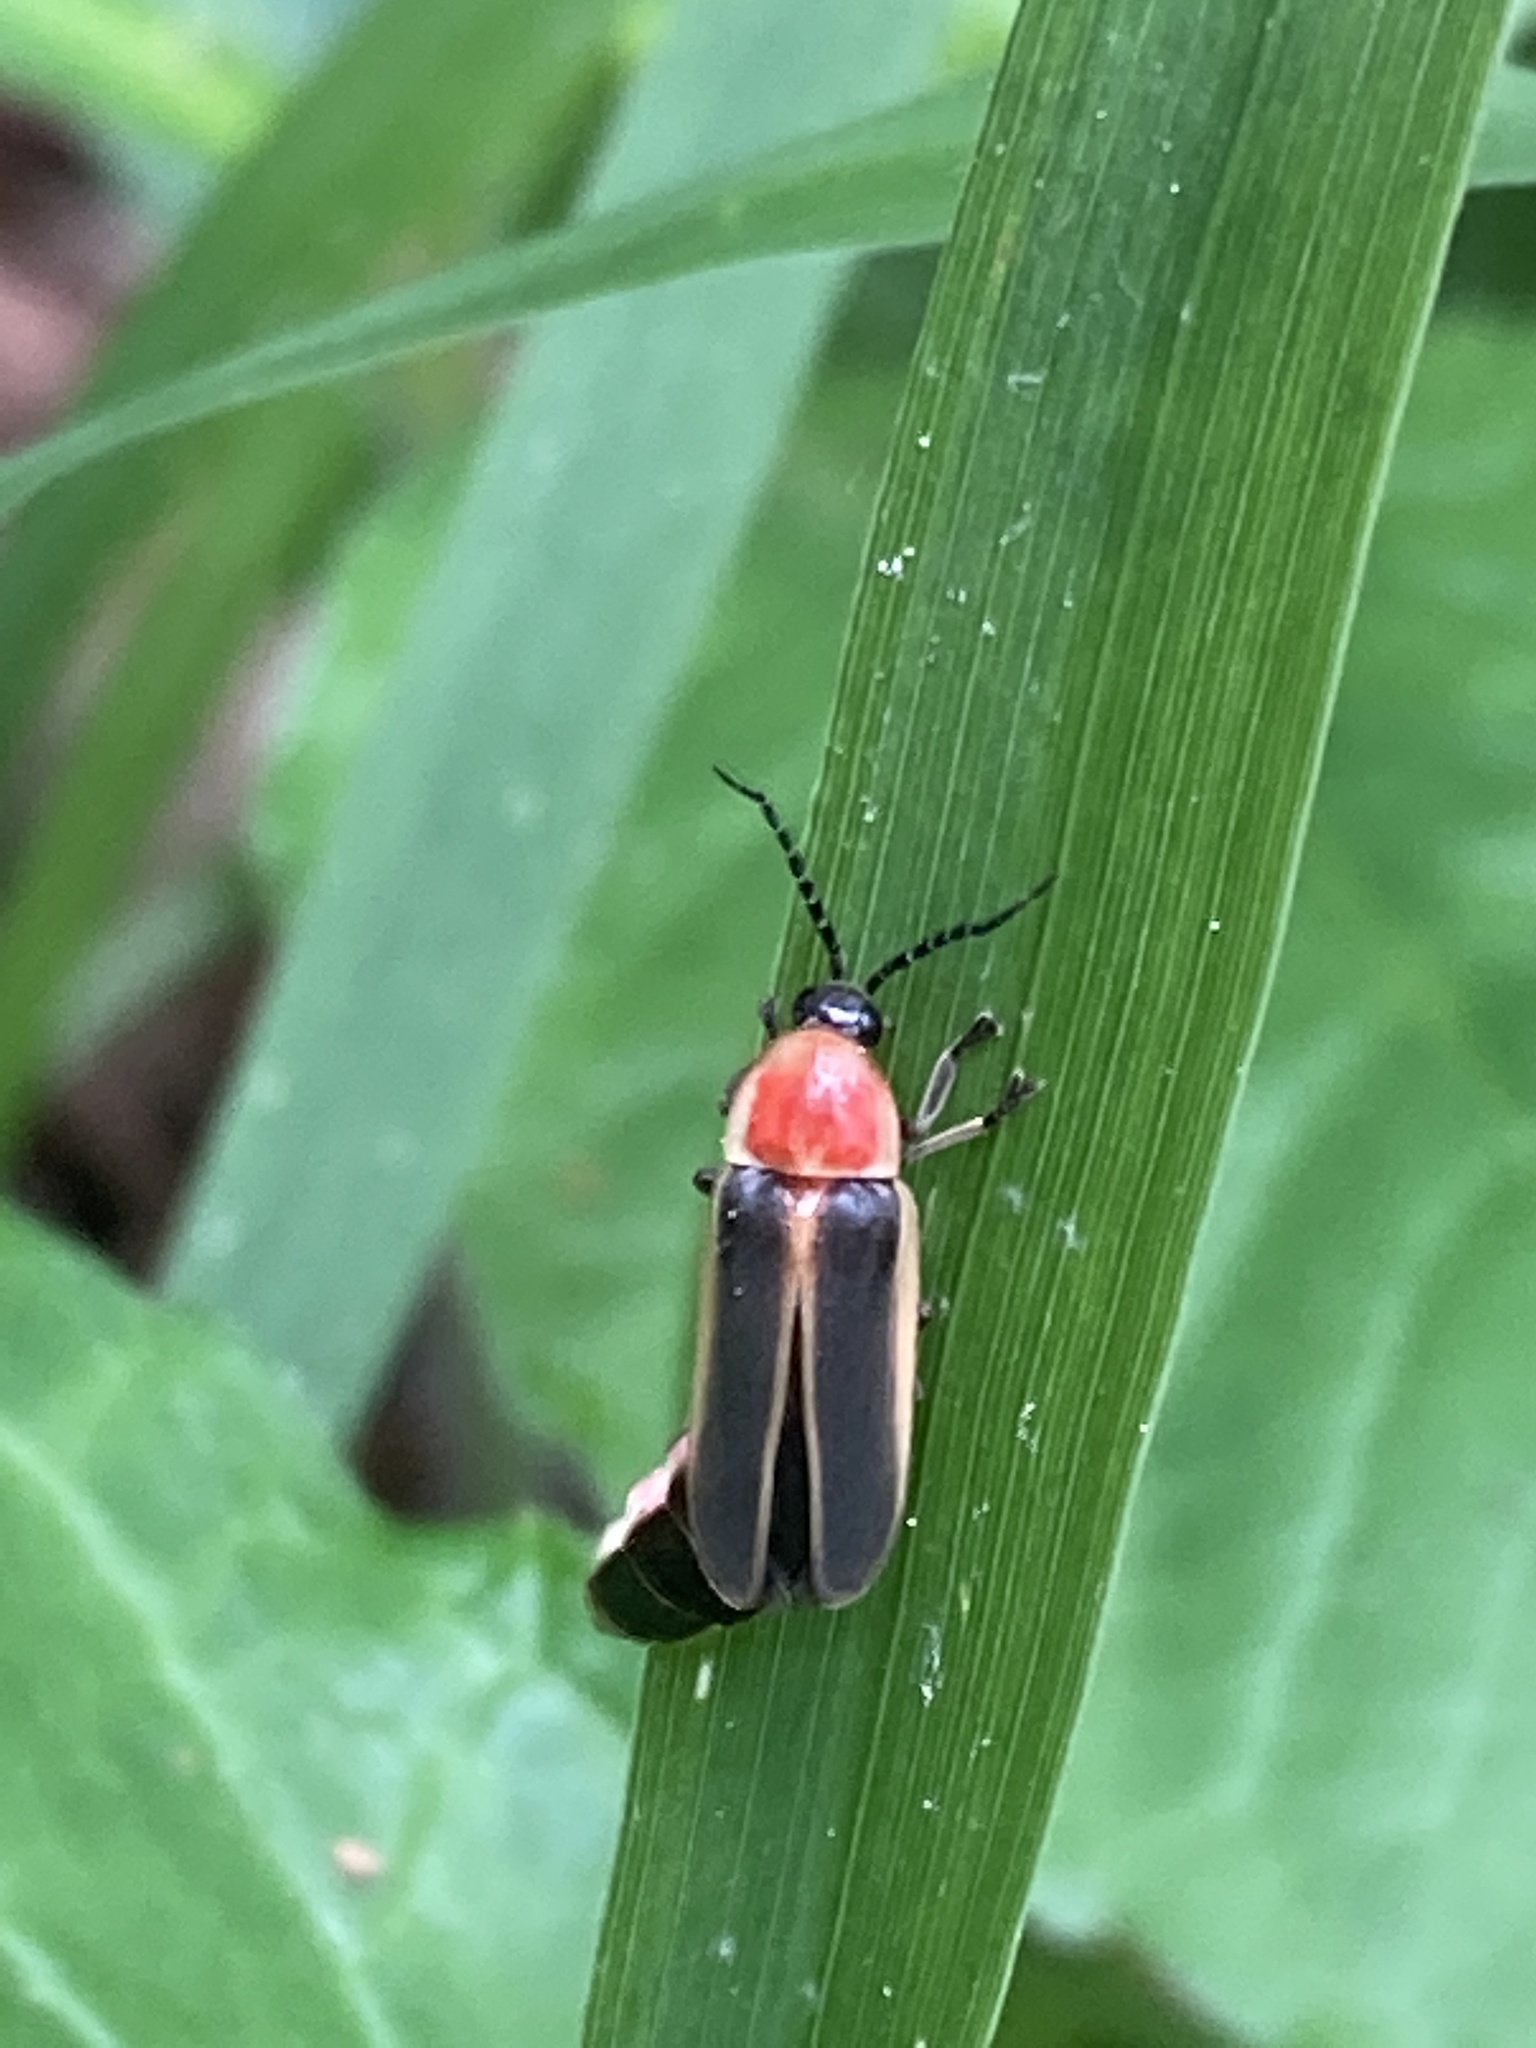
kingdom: Animalia
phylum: Arthropoda
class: Insecta
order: Coleoptera
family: Lampyridae
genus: Photinus
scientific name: Photinus pyralis
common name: Big dipper firefly
